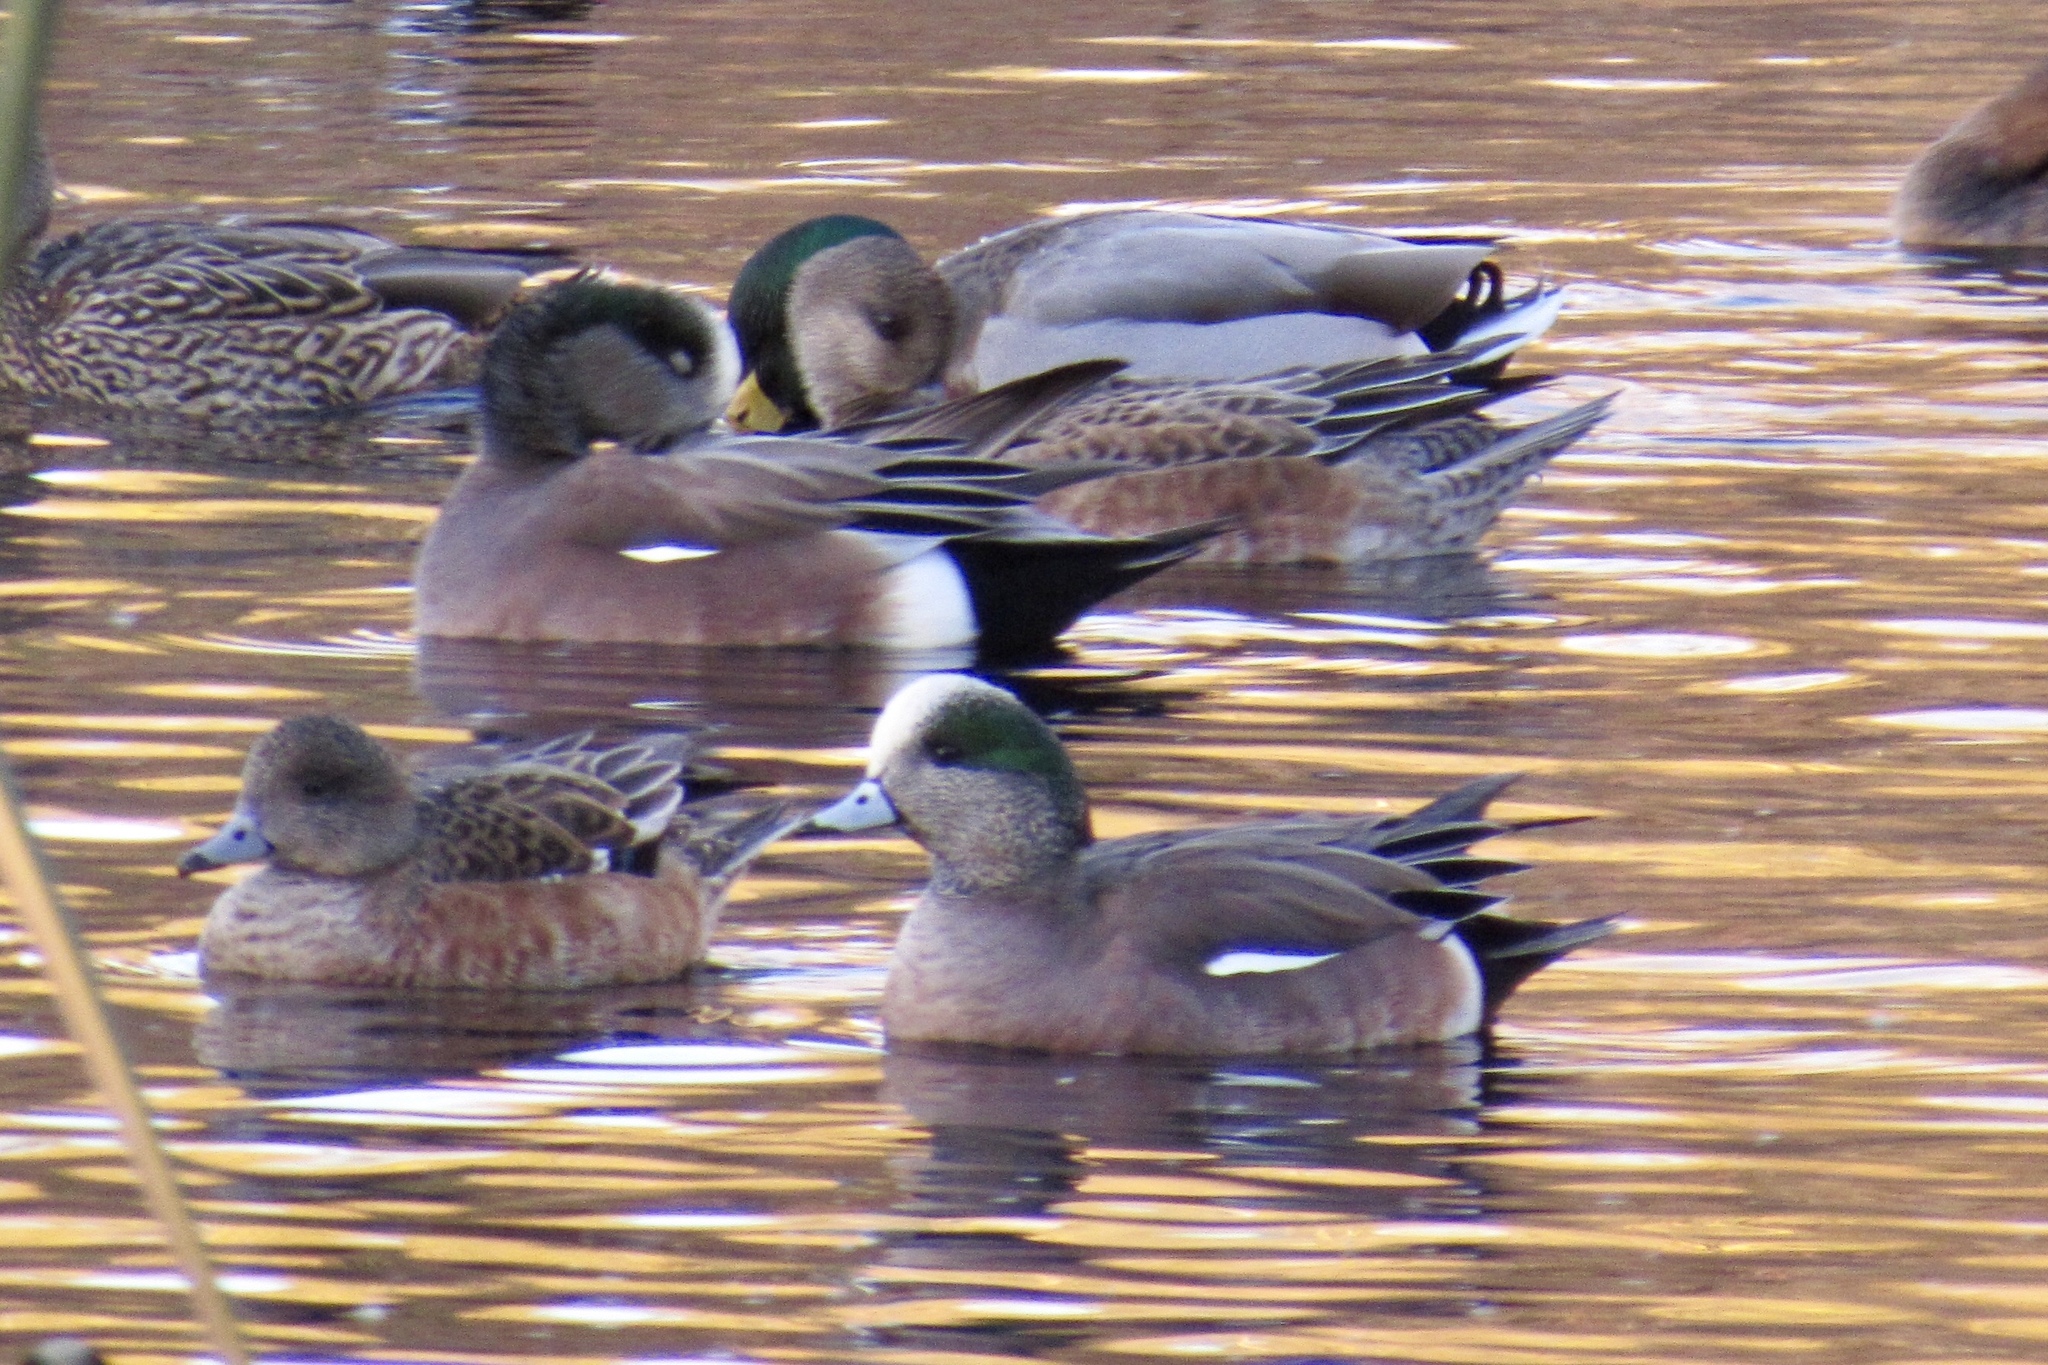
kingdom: Animalia
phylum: Chordata
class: Aves
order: Anseriformes
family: Anatidae
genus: Mareca
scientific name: Mareca americana
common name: American wigeon
